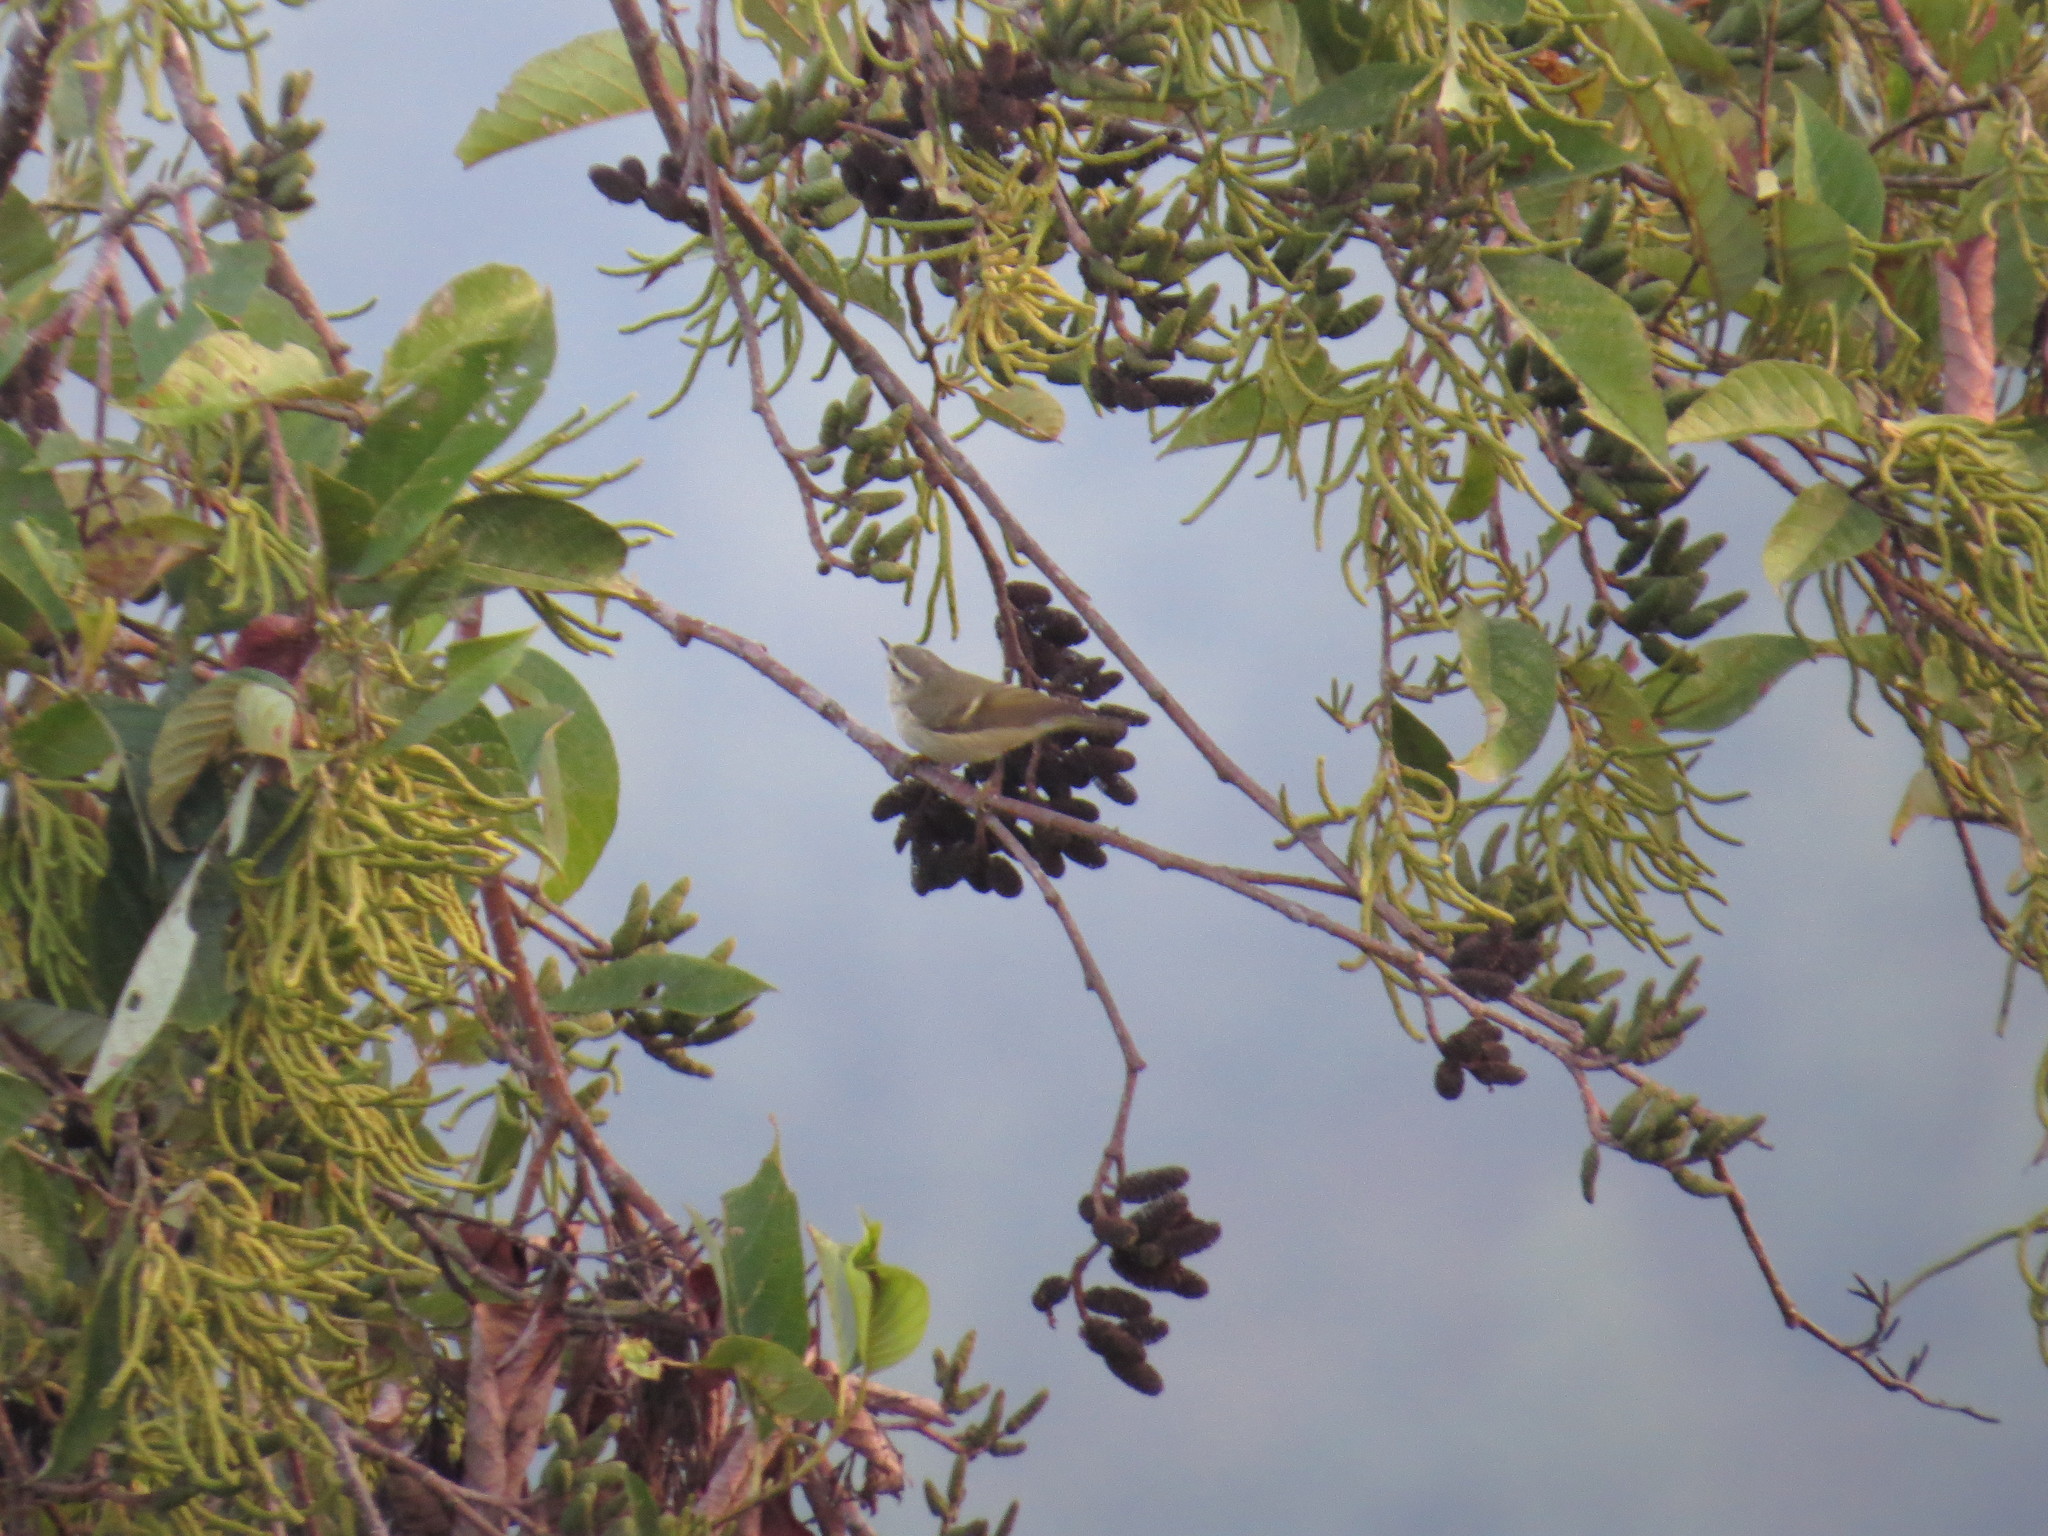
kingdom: Animalia
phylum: Chordata
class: Aves
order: Passeriformes
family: Phylloscopidae
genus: Phylloscopus
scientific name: Phylloscopus humei
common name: Hume's leaf warbler
